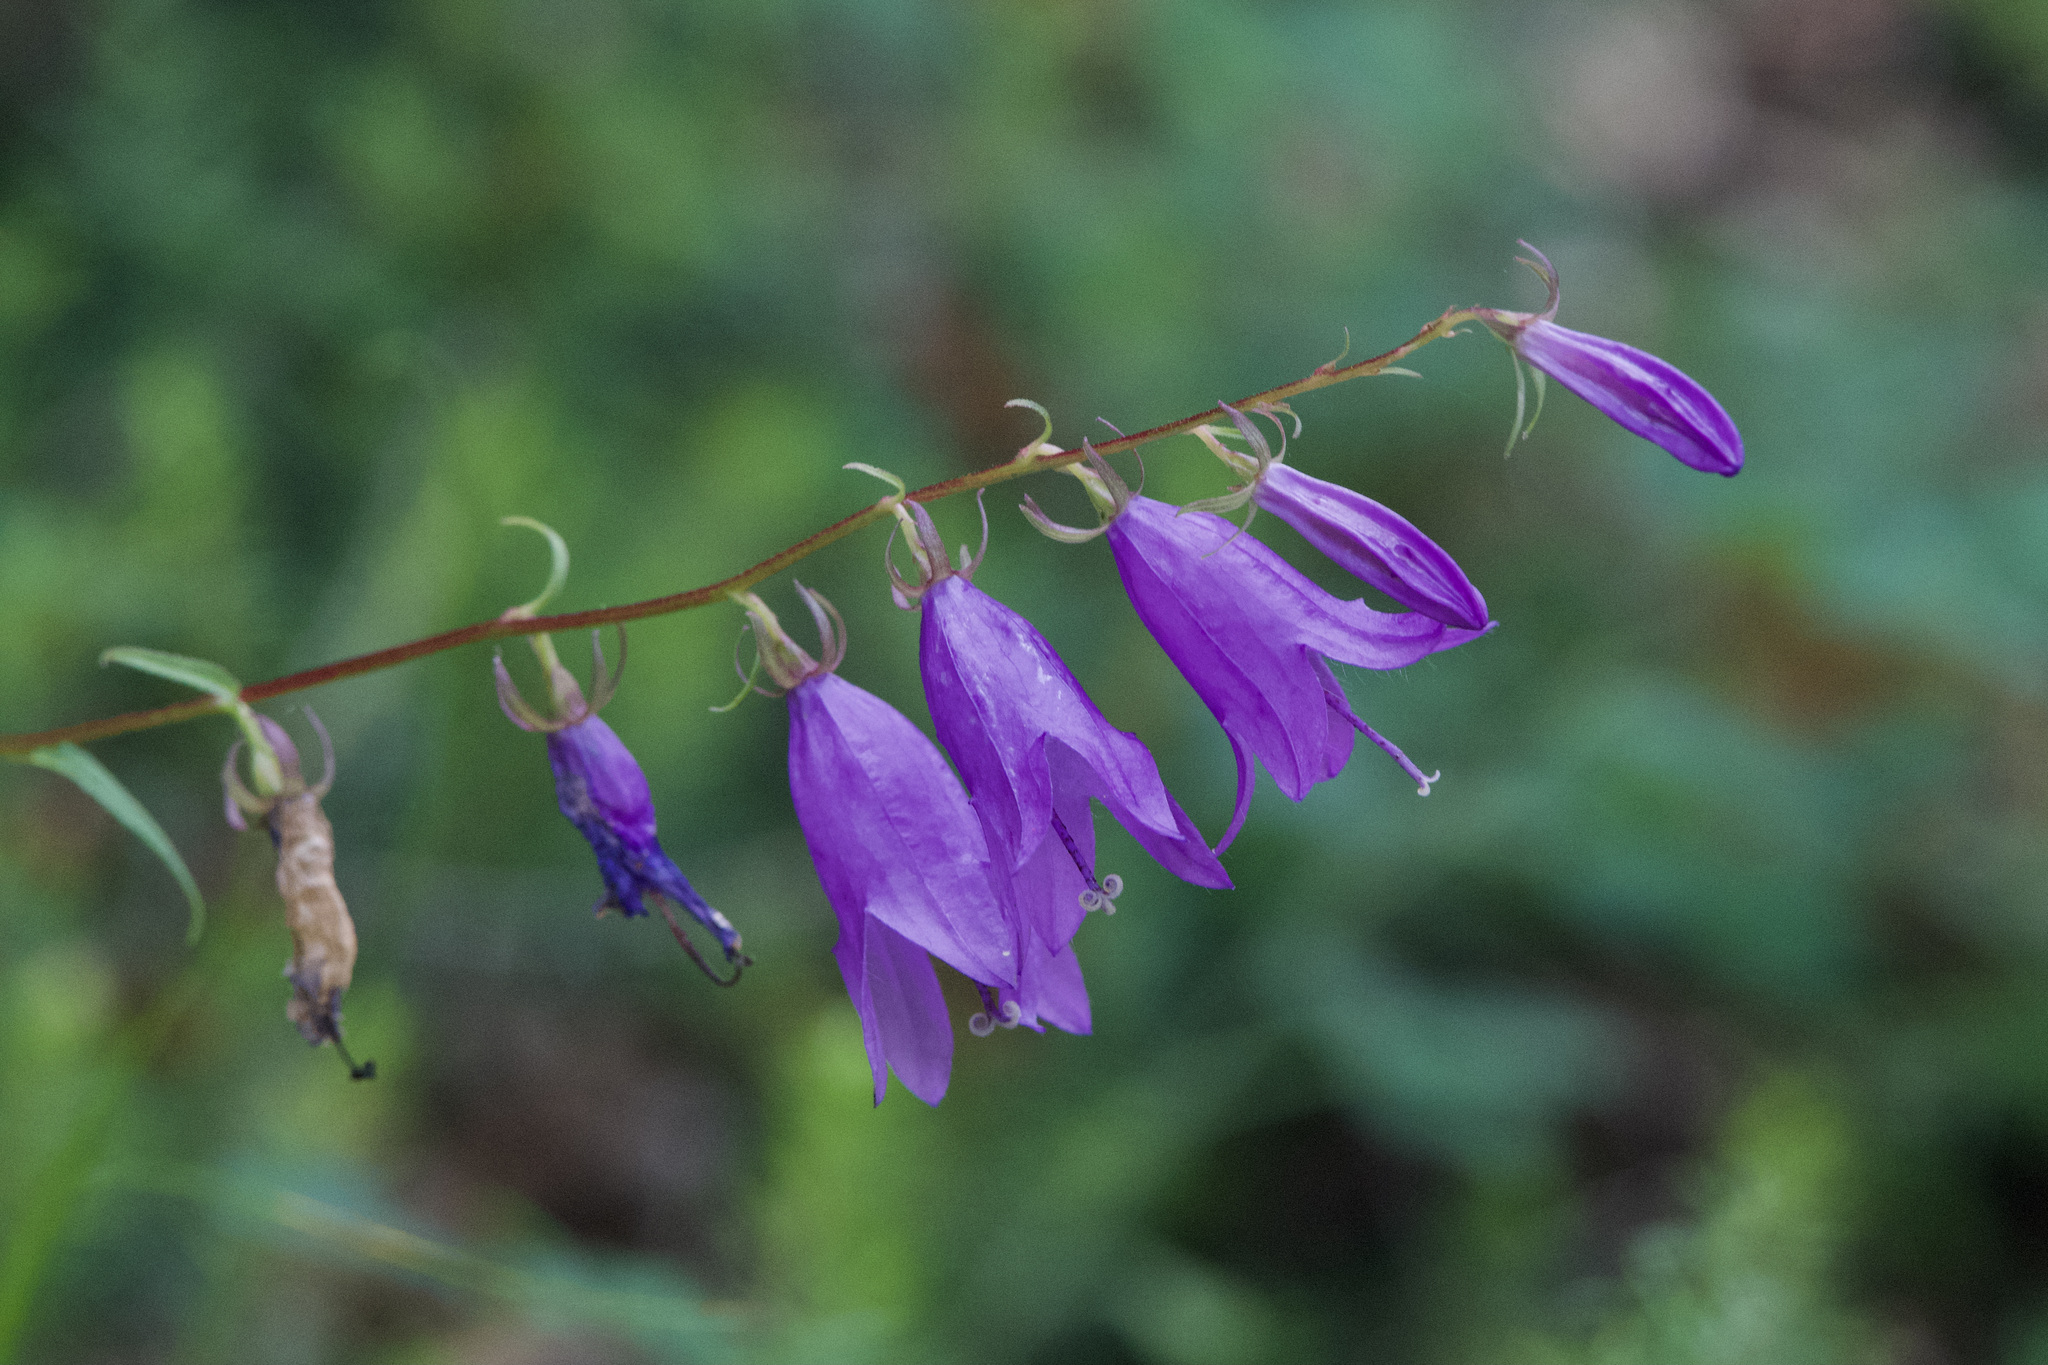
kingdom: Plantae
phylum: Tracheophyta
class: Magnoliopsida
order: Asterales
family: Campanulaceae
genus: Campanula
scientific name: Campanula rapunculoides
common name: Creeping bellflower
